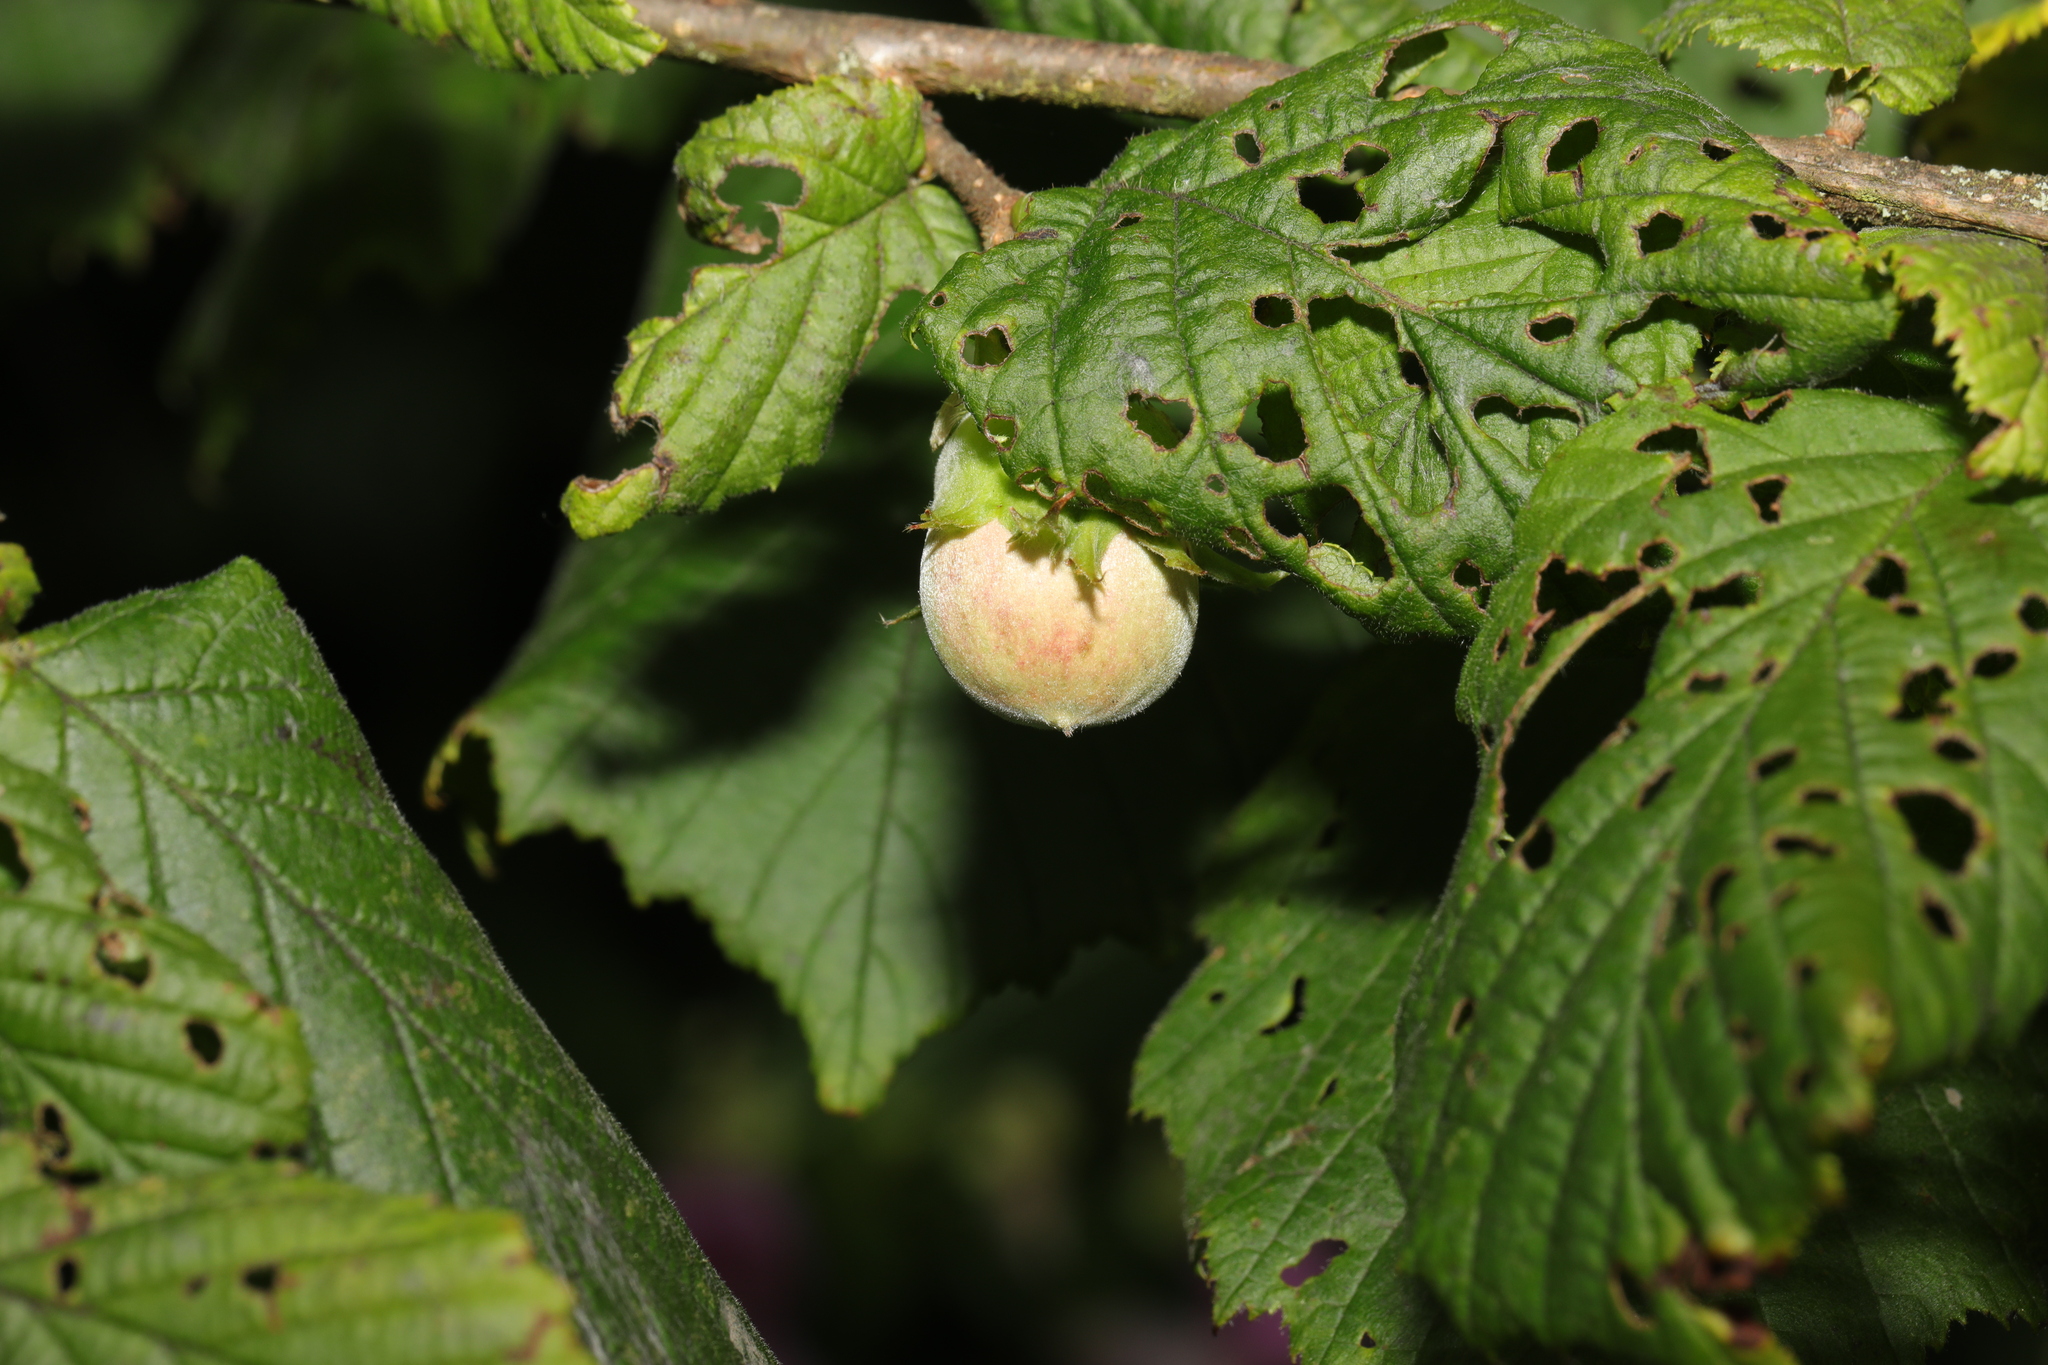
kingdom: Plantae
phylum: Tracheophyta
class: Magnoliopsida
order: Fagales
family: Betulaceae
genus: Corylus
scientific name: Corylus avellana
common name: European hazel
